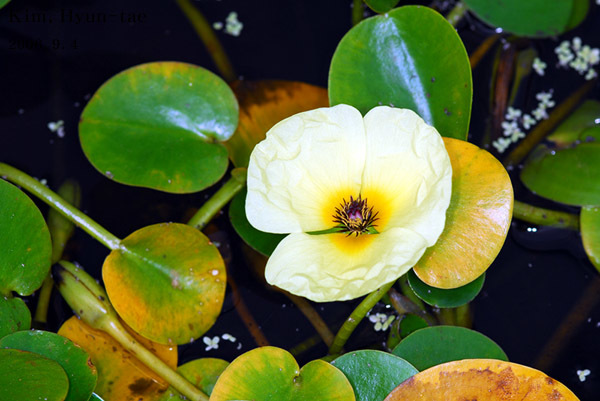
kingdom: Plantae
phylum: Tracheophyta
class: Liliopsida
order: Alismatales
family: Alismataceae
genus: Hydrocleys
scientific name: Hydrocleys nymphoides
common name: Water-poppy
